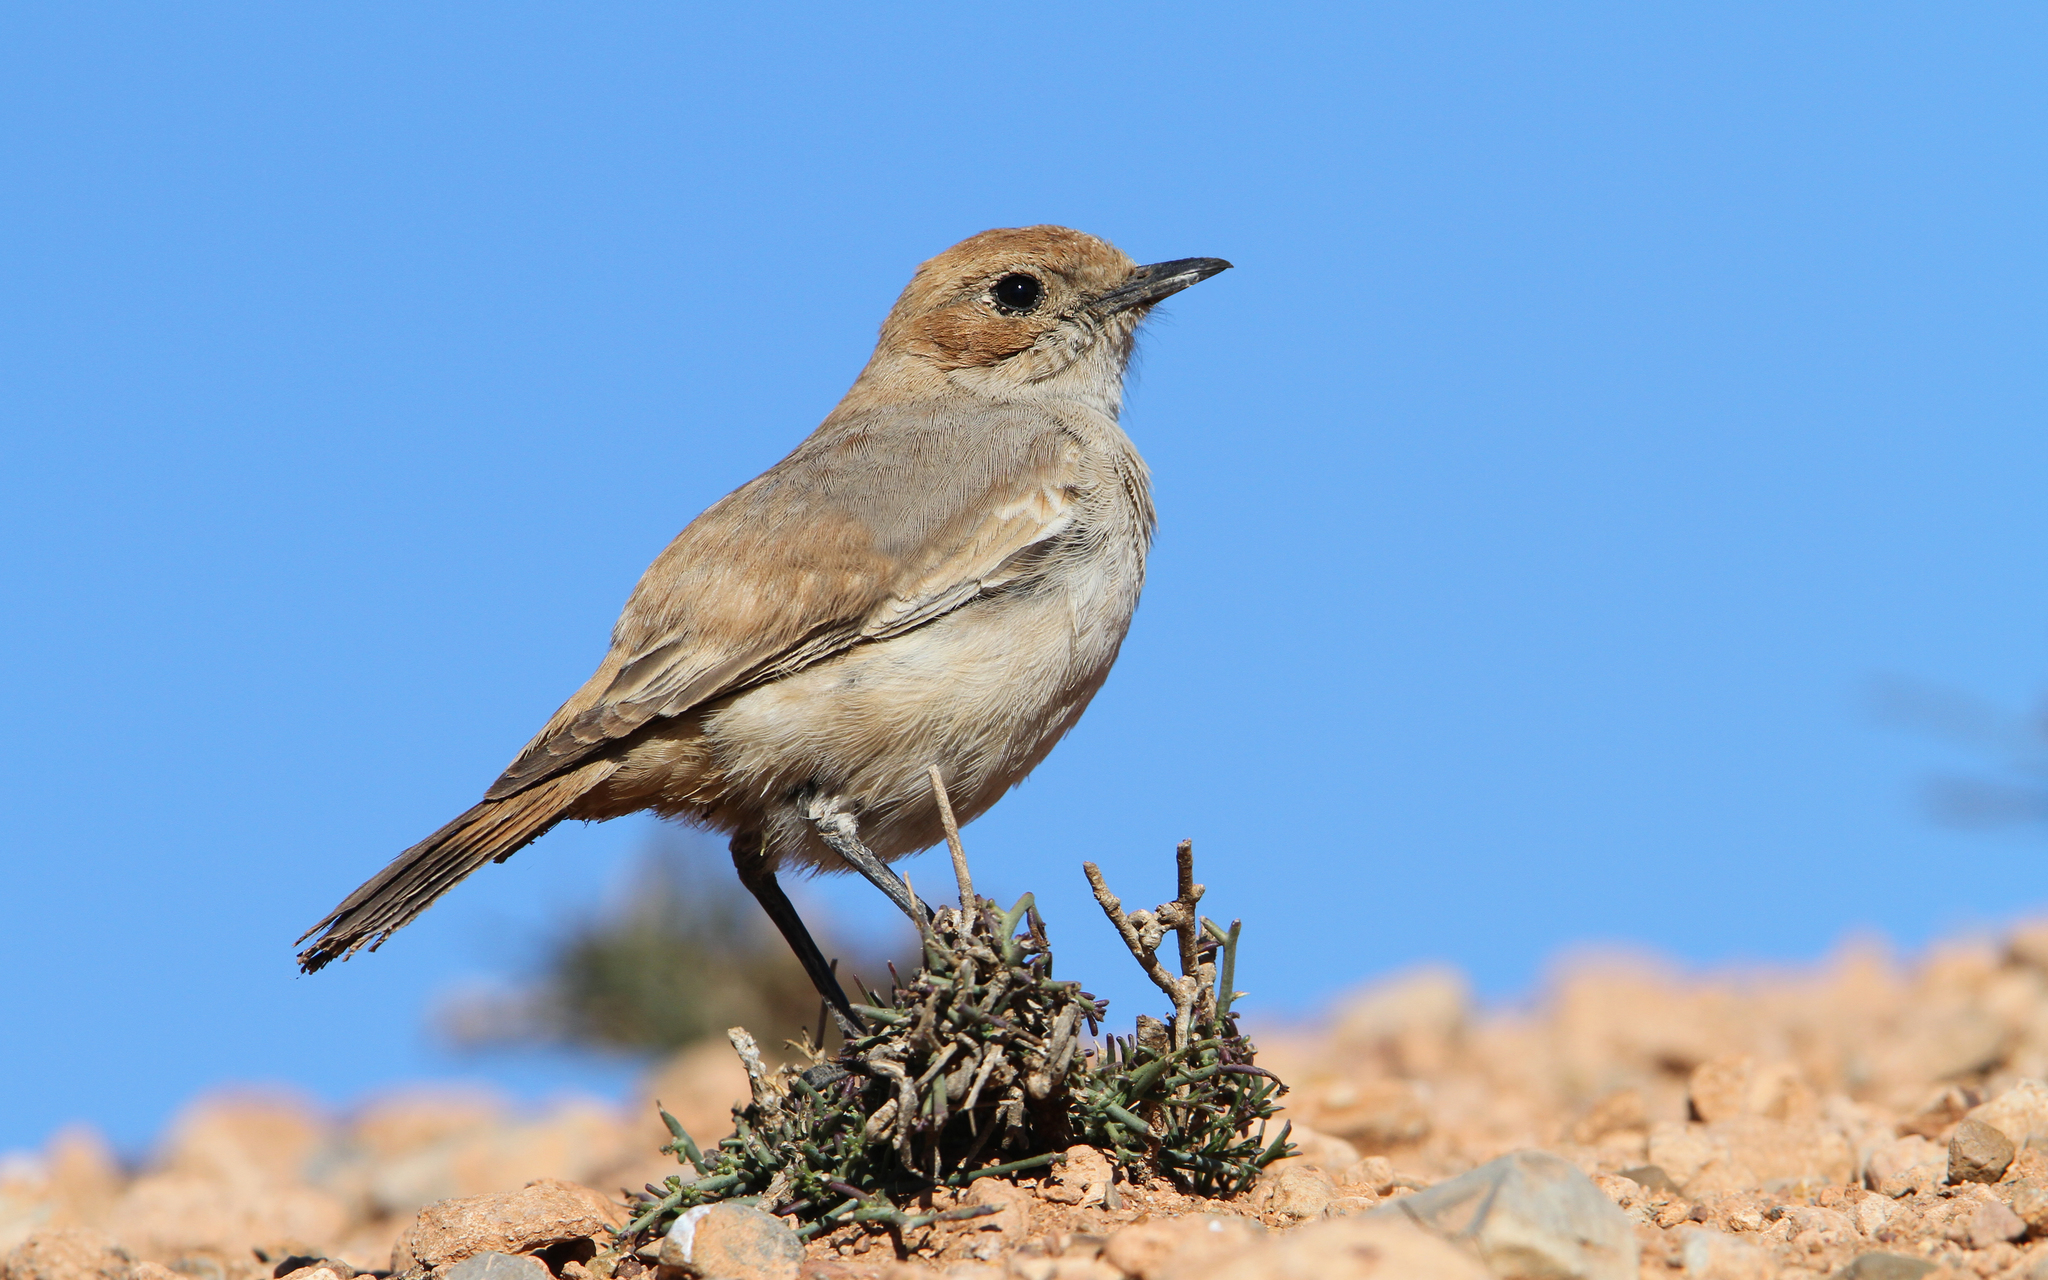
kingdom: Animalia
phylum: Chordata
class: Aves
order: Passeriformes
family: Muscicapidae
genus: Oenanthe
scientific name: Oenanthe moesta
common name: Red-rumped wheatear
